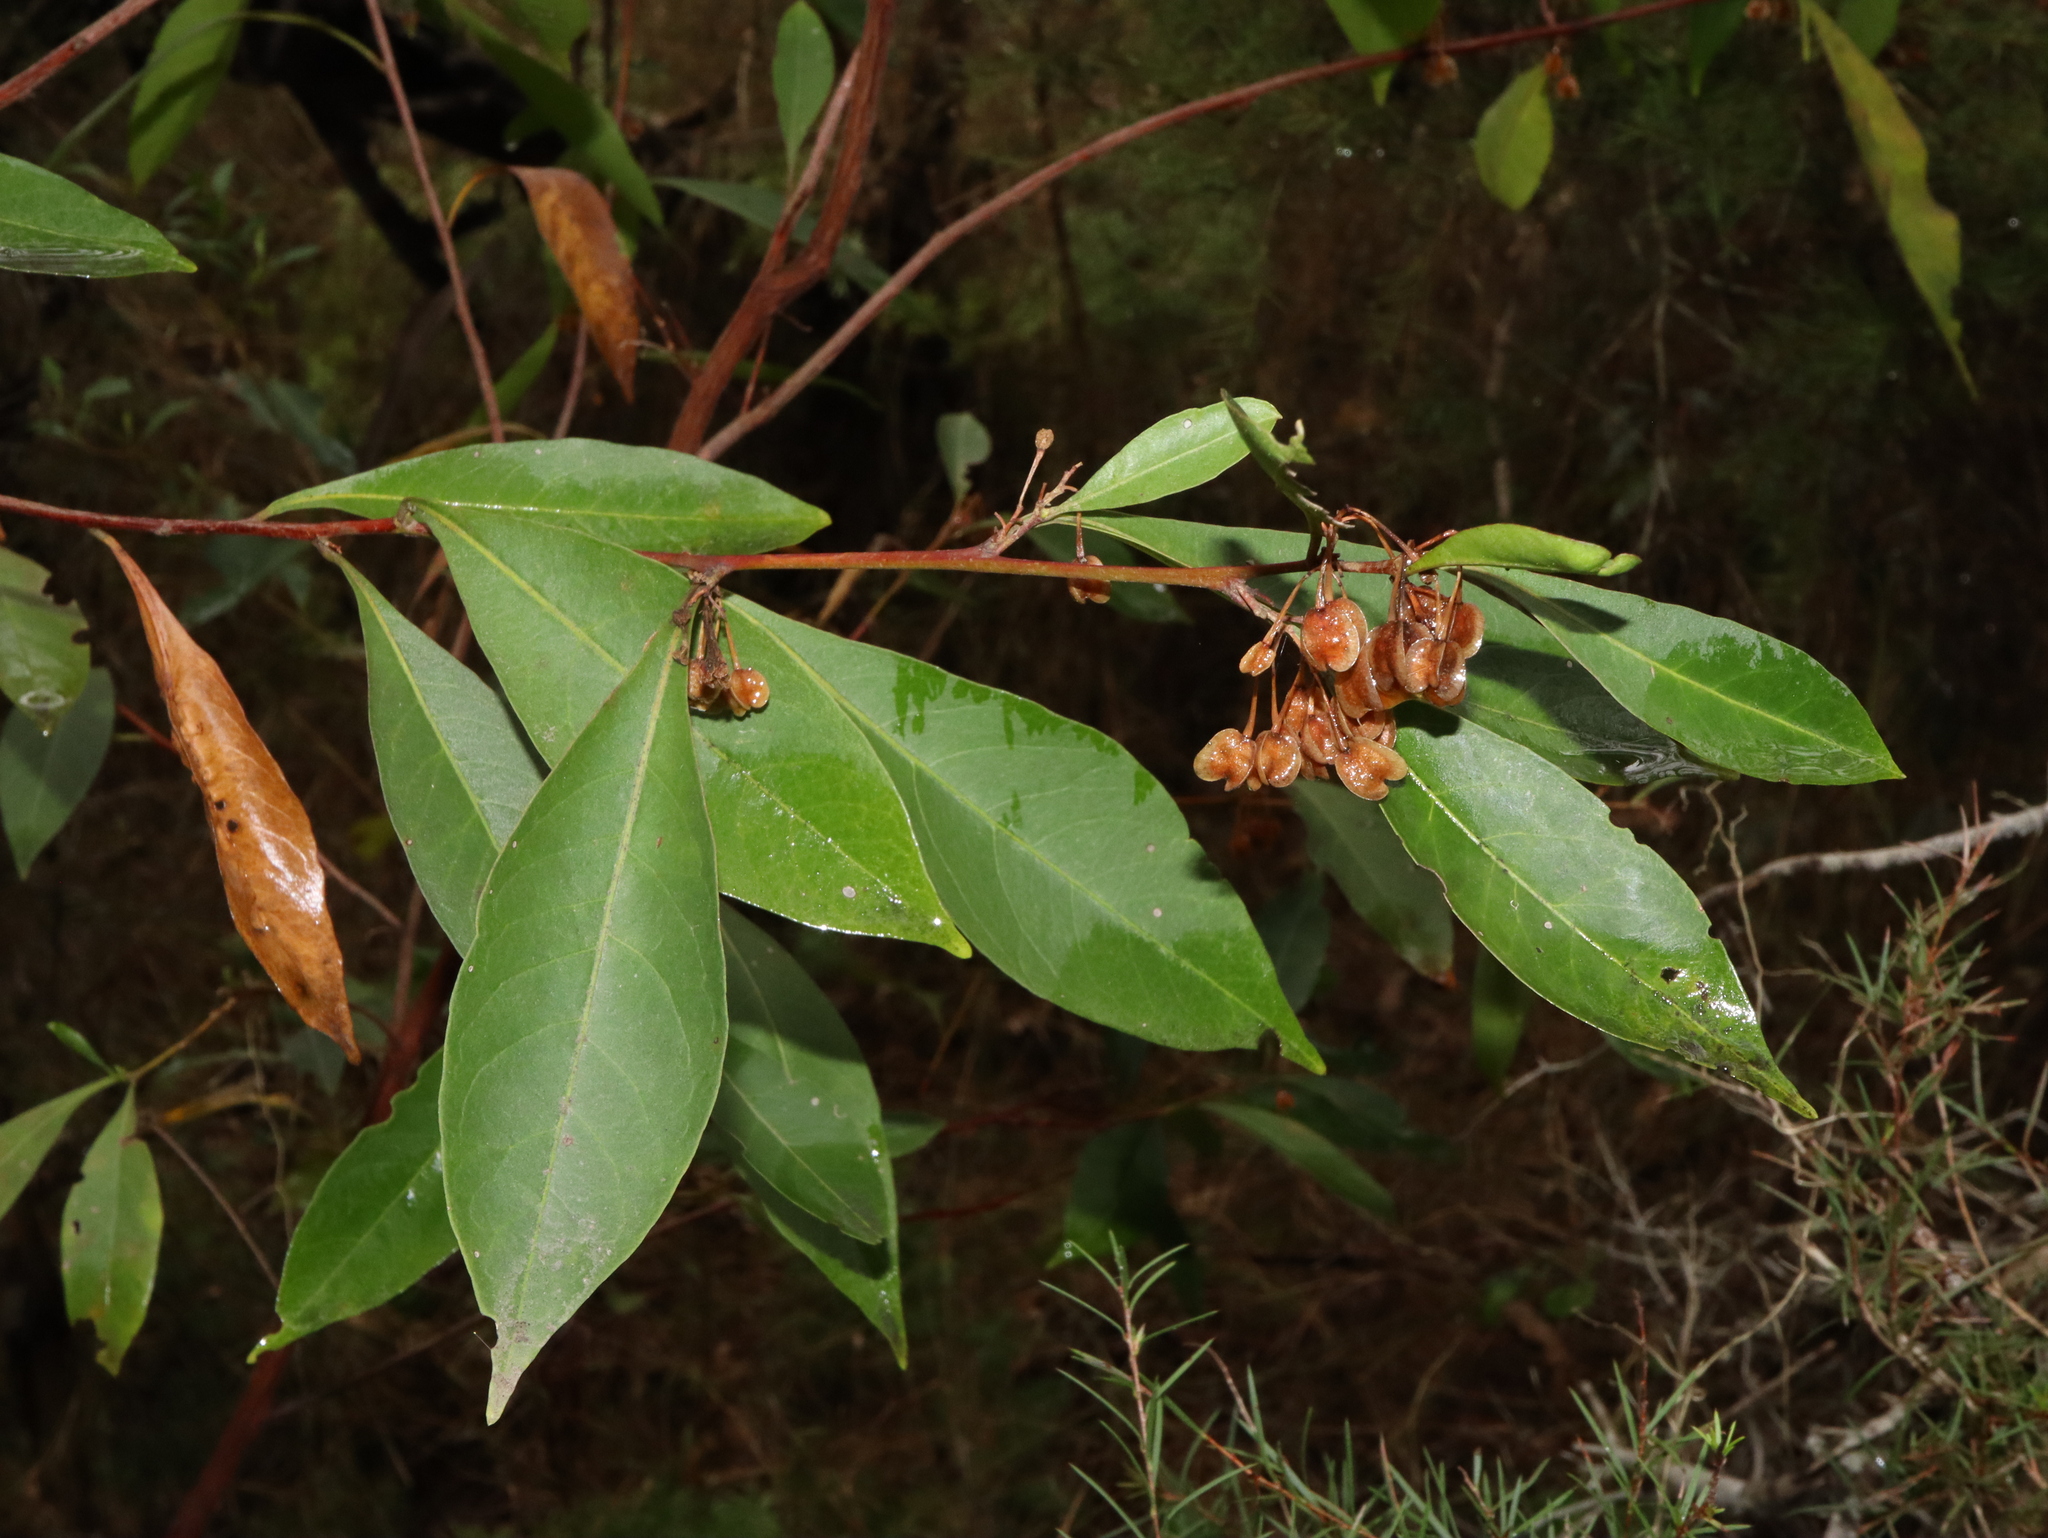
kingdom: Plantae
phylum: Tracheophyta
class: Magnoliopsida
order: Sapindales
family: Sapindaceae
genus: Dodonaea
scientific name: Dodonaea triquetra
